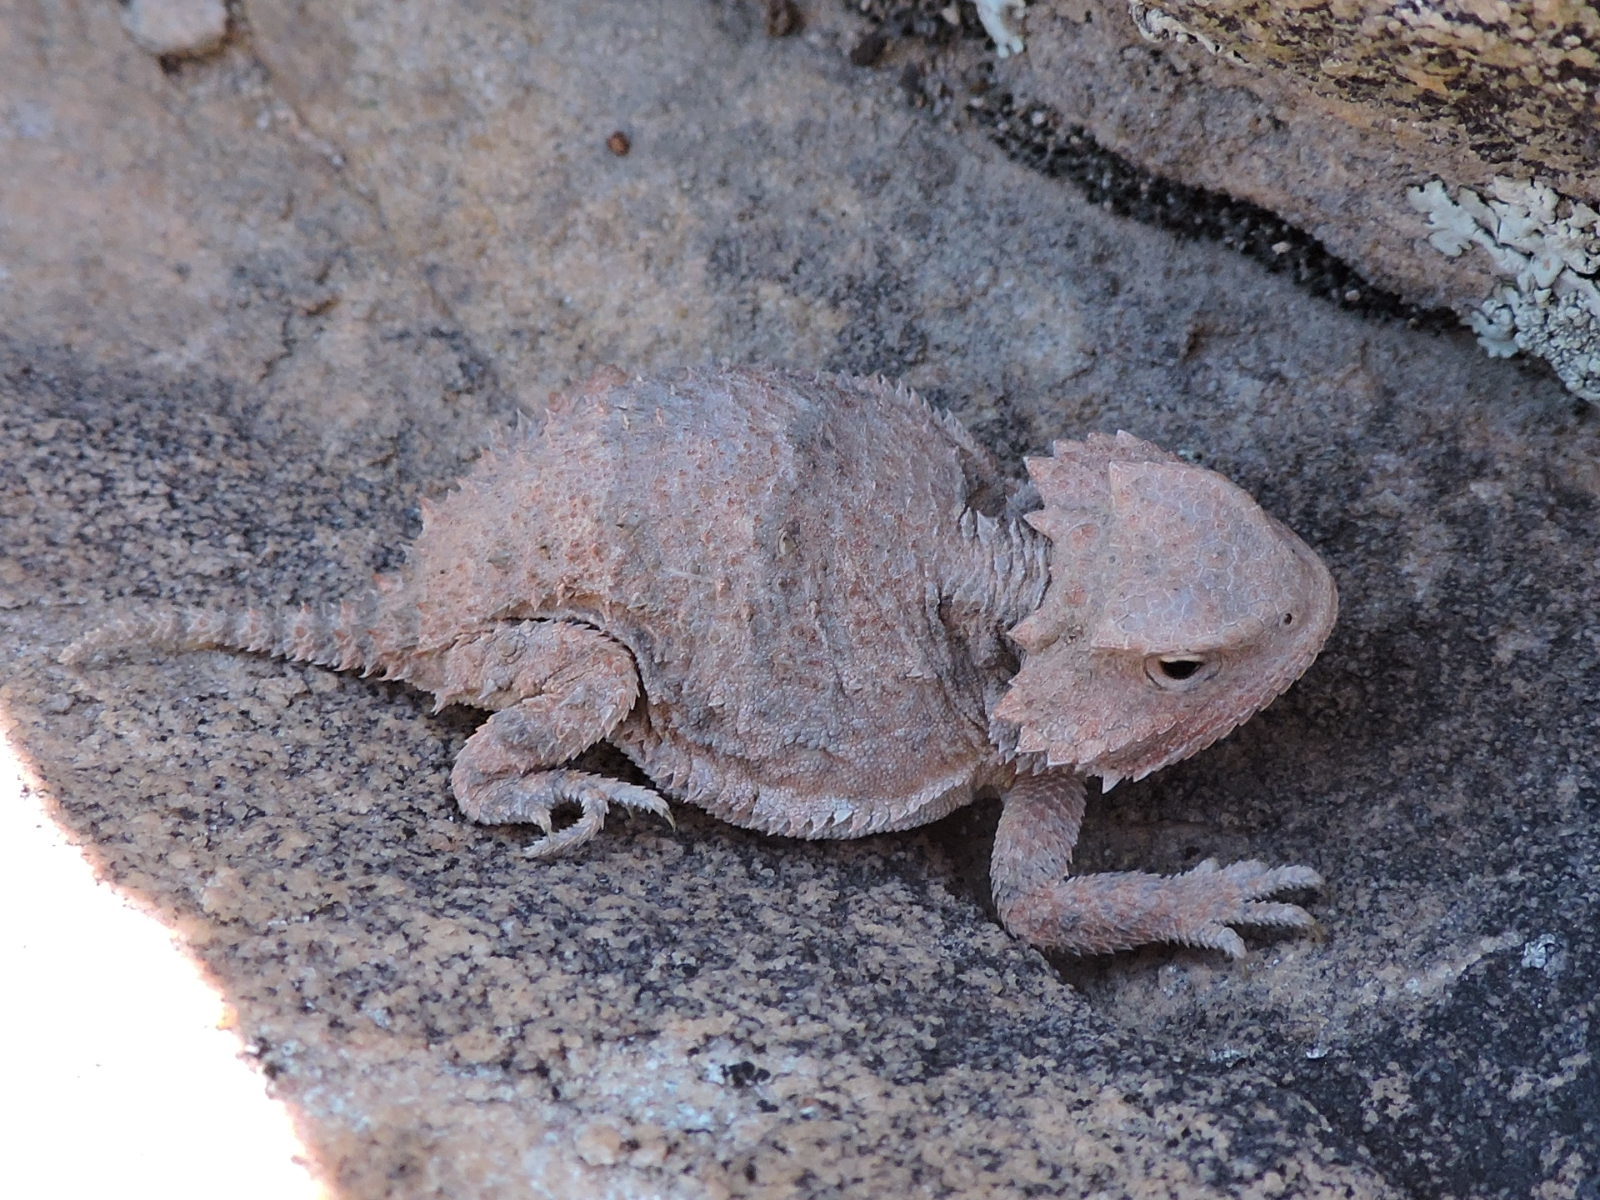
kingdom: Animalia
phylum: Chordata
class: Squamata
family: Phrynosomatidae
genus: Phrynosoma
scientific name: Phrynosoma hernandesi
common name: Greater short-horned lizard
